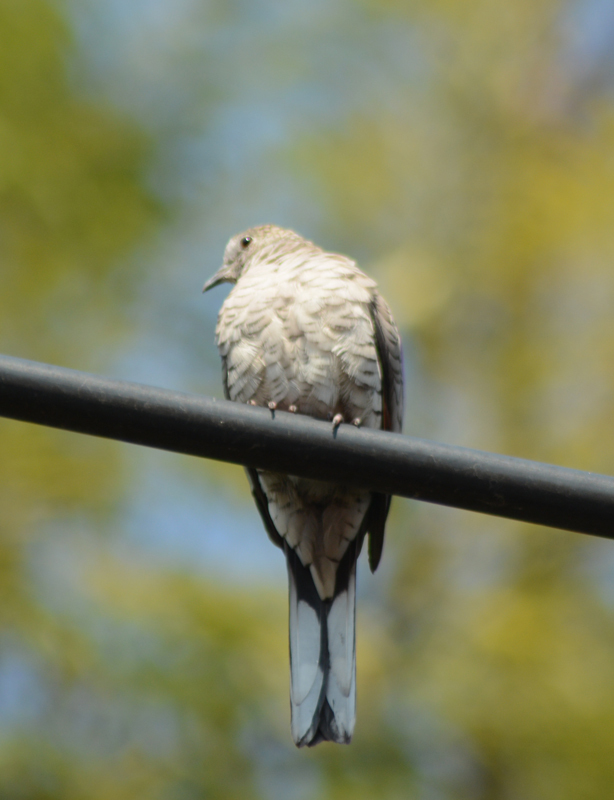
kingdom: Animalia
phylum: Chordata
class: Aves
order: Columbiformes
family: Columbidae
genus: Columbina
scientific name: Columbina inca
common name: Inca dove
